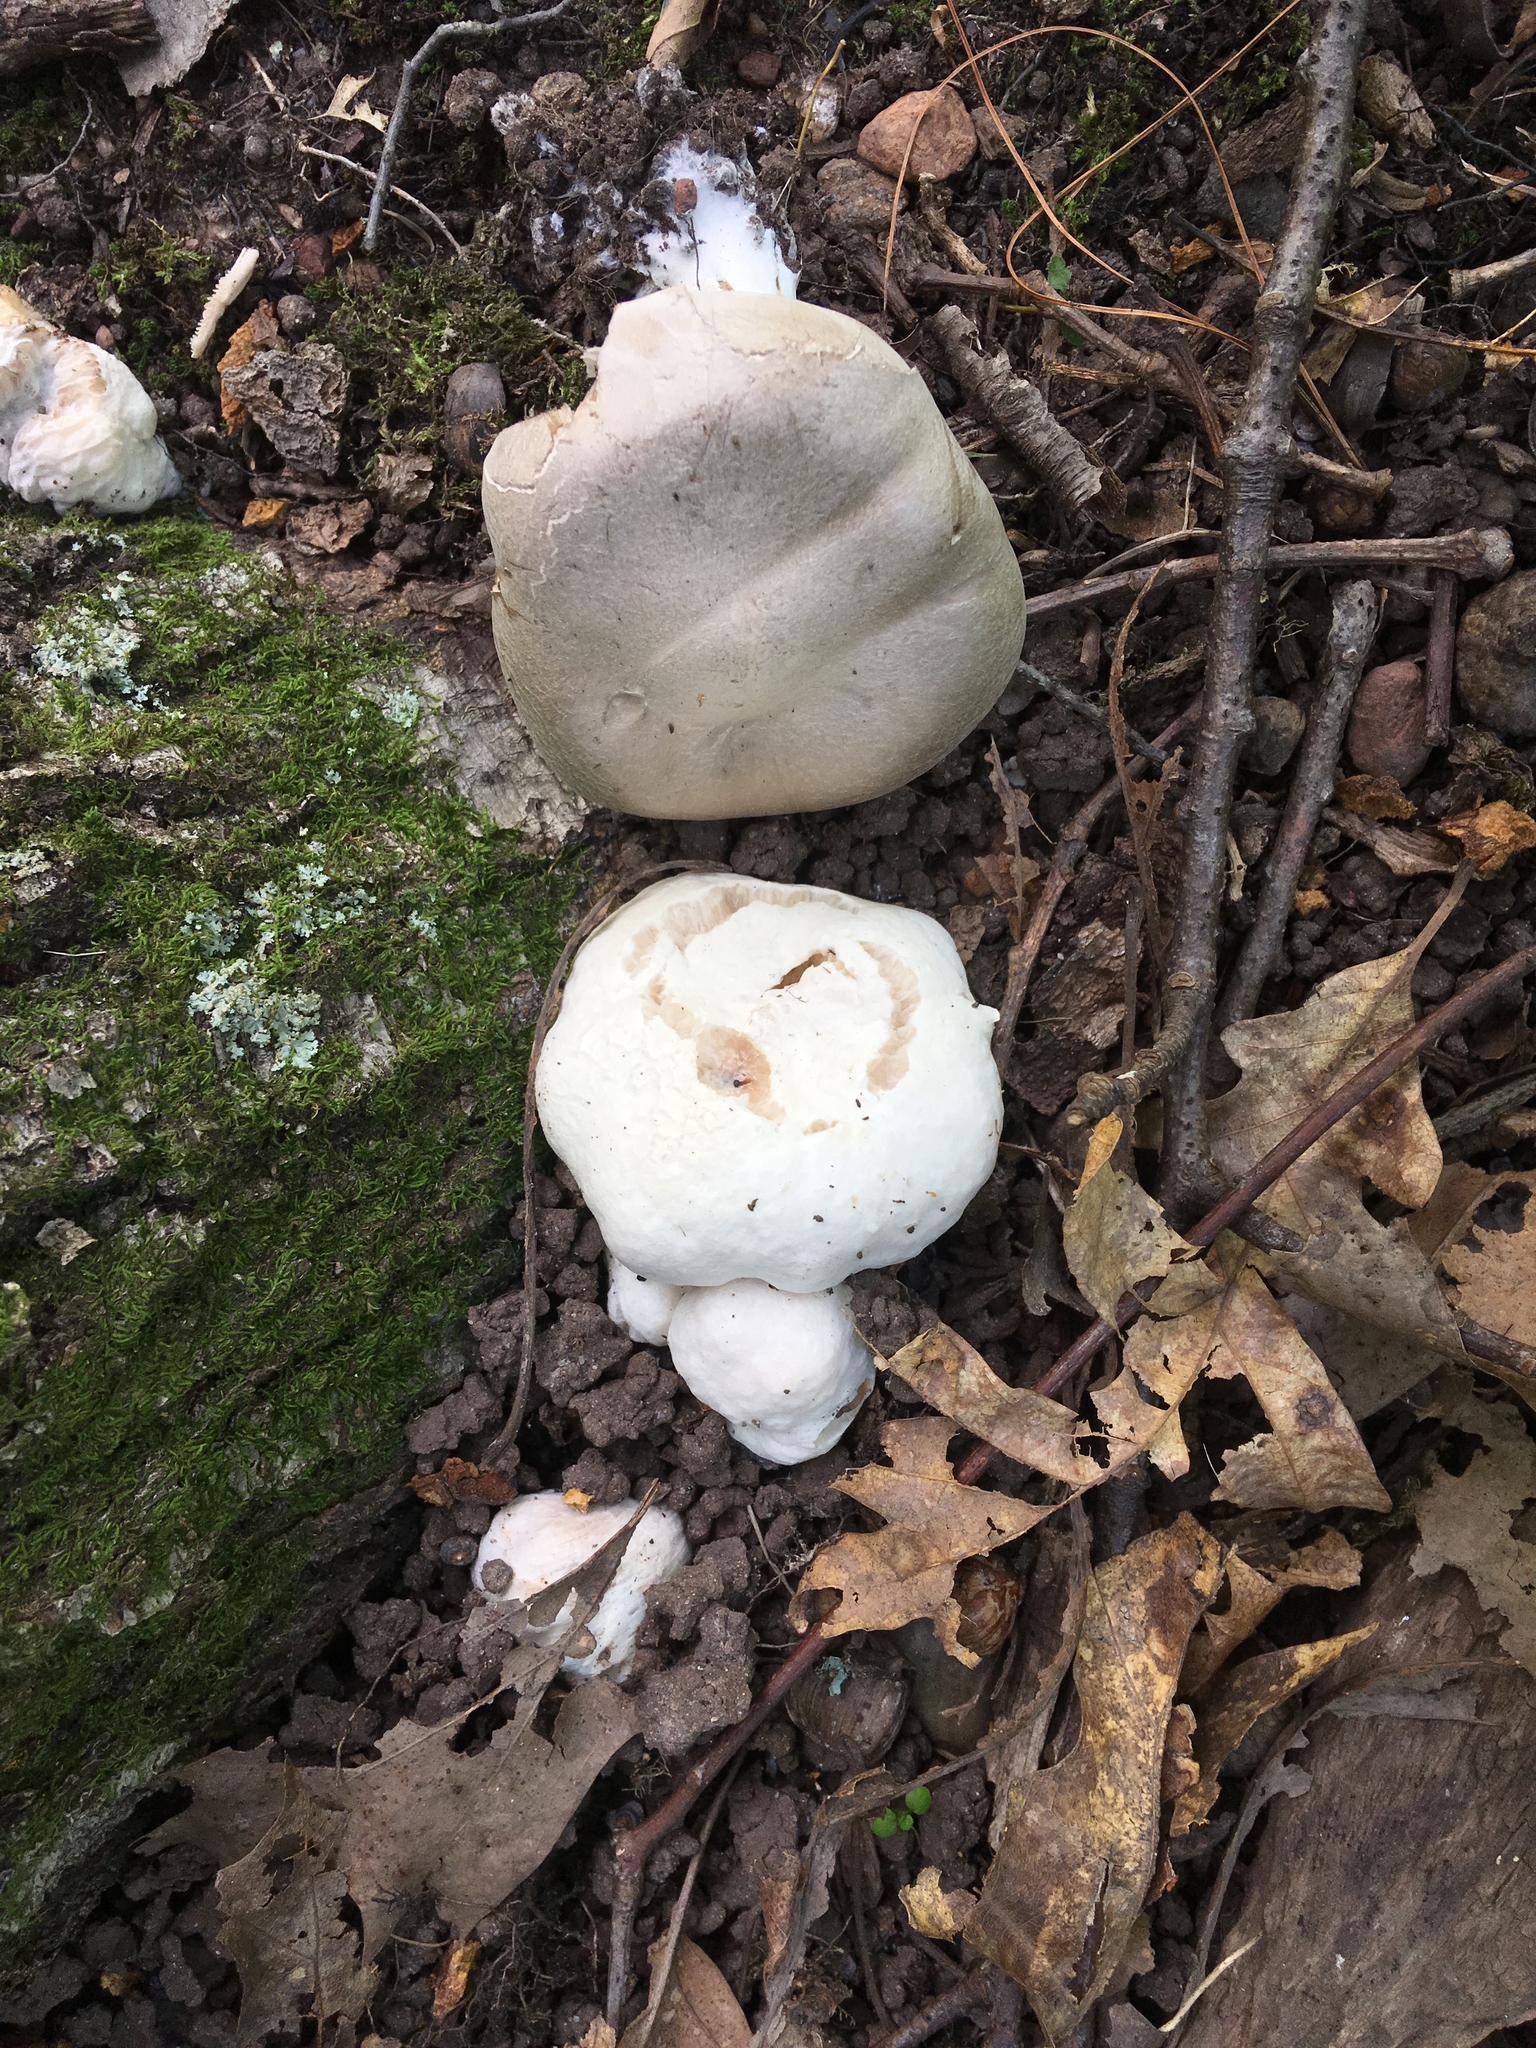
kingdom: Fungi
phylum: Basidiomycota
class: Agaricomycetes
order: Agaricales
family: Entolomataceae
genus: Entoloma
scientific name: Entoloma abortivum
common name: Aborted entoloma
